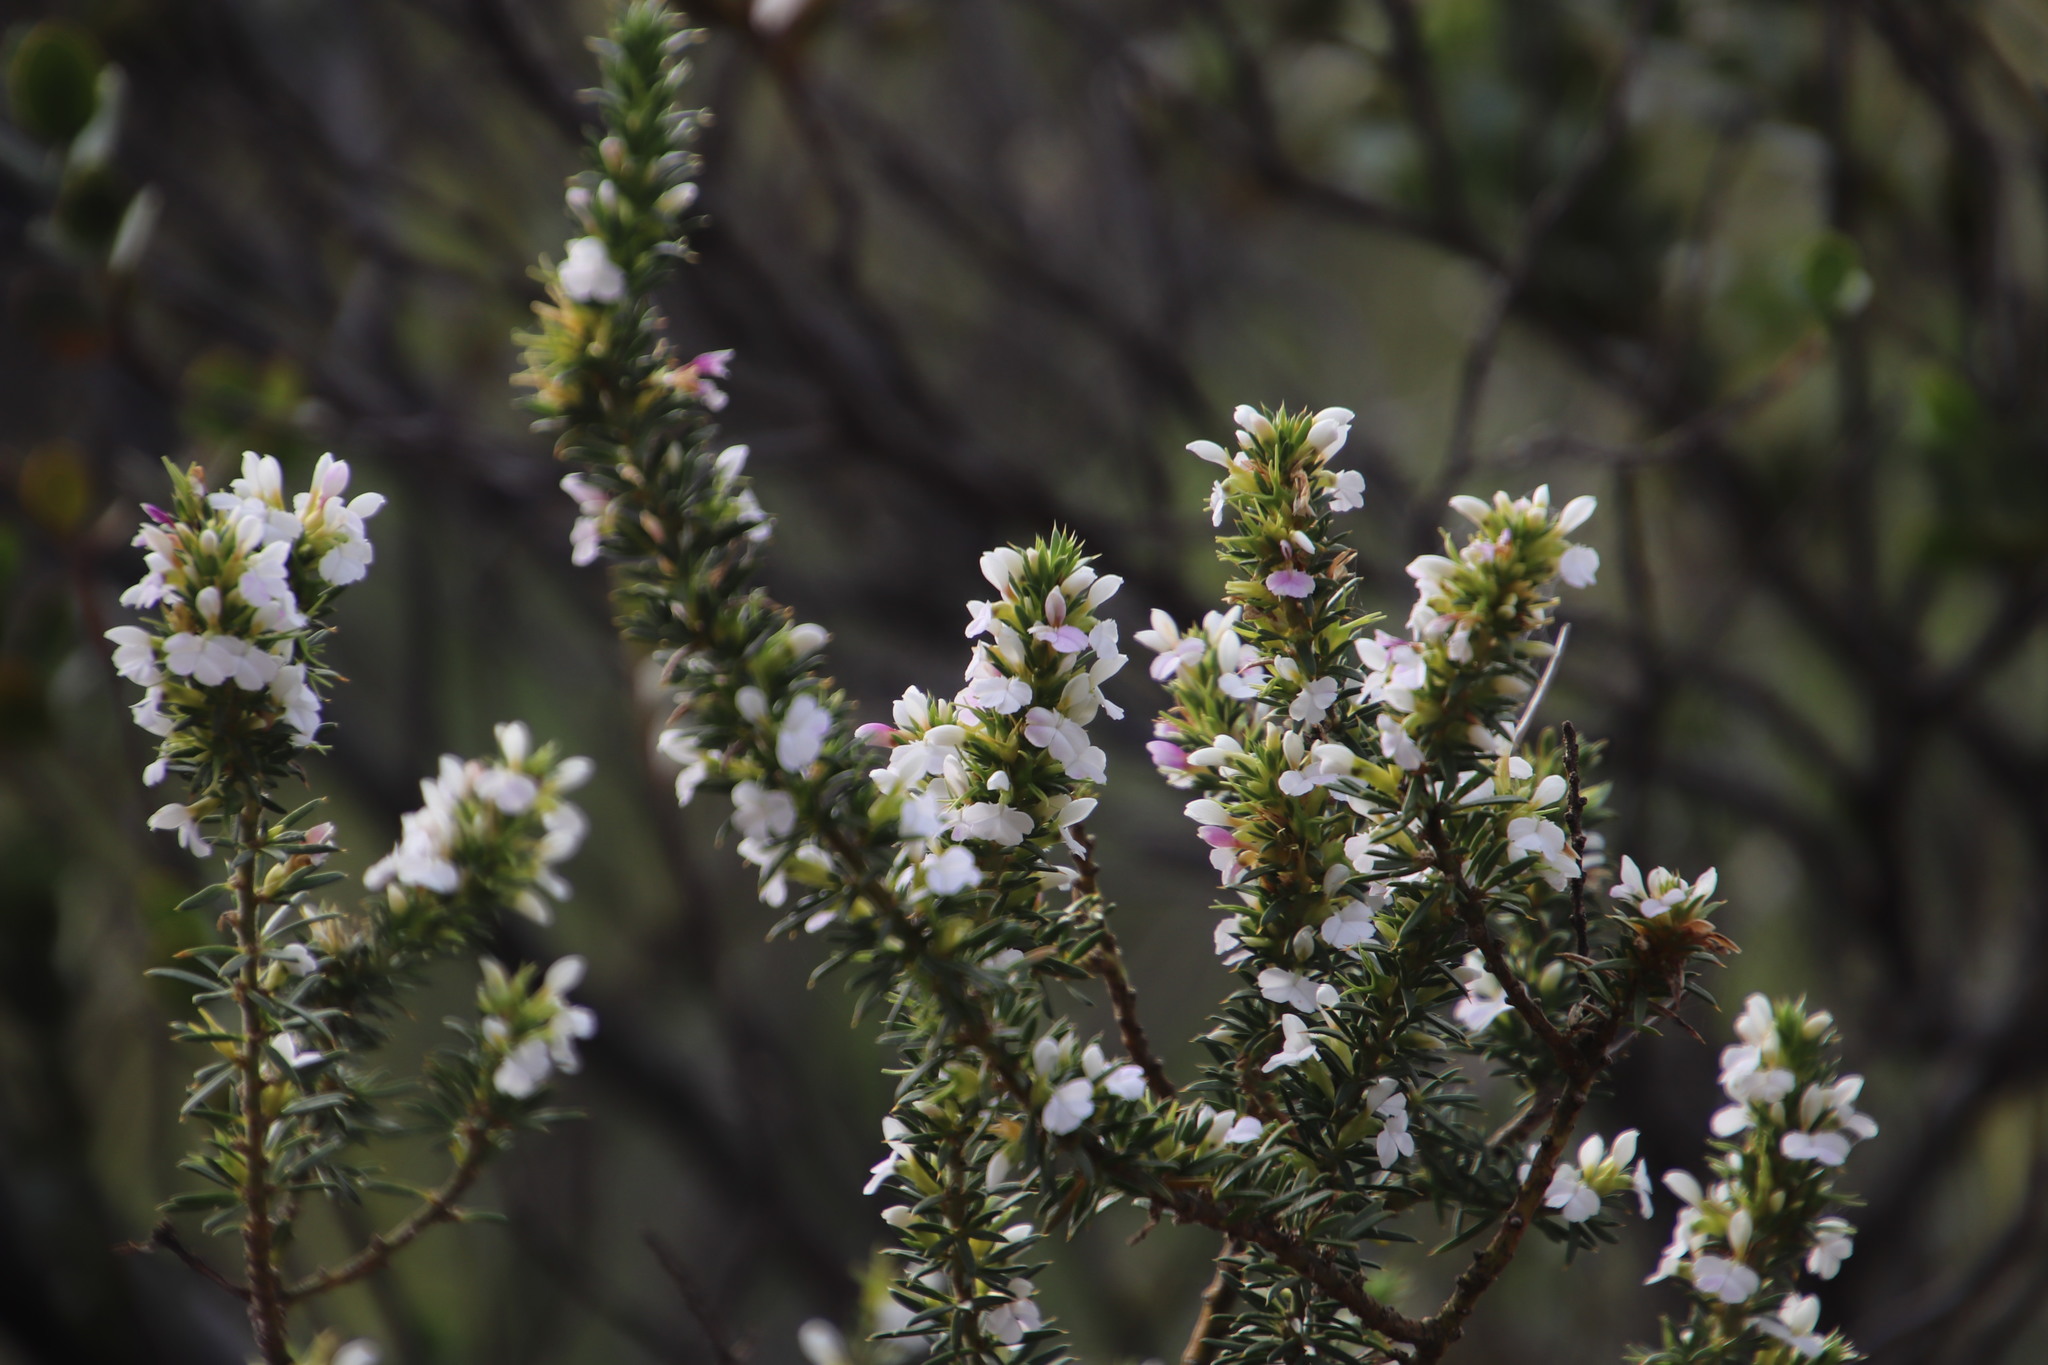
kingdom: Plantae
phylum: Tracheophyta
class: Magnoliopsida
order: Fabales
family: Polygalaceae
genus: Muraltia
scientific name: Muraltia heisteria
